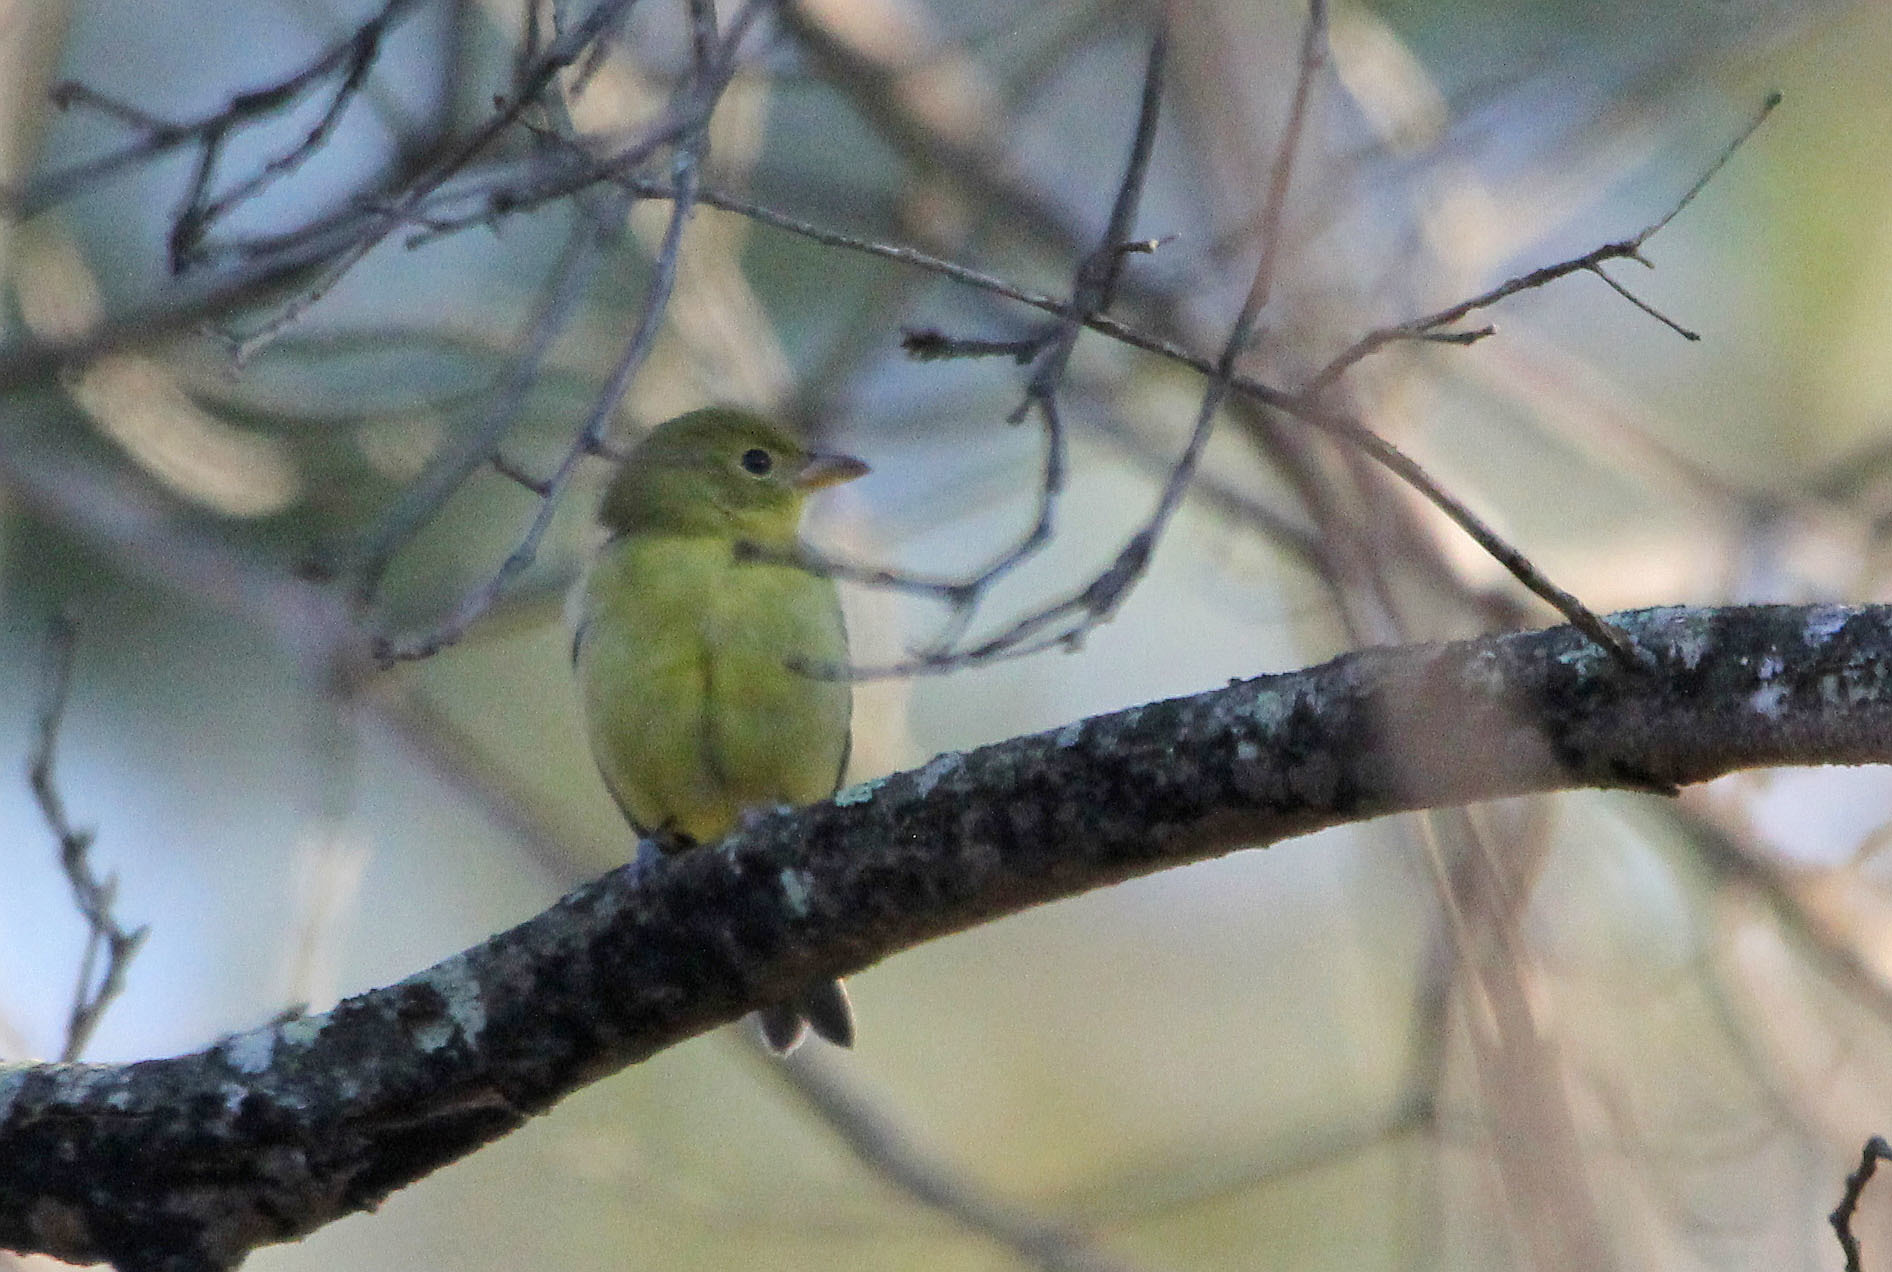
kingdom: Animalia
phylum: Chordata
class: Aves
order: Passeriformes
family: Cardinalidae
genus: Piranga
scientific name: Piranga olivacea
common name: Scarlet tanager
